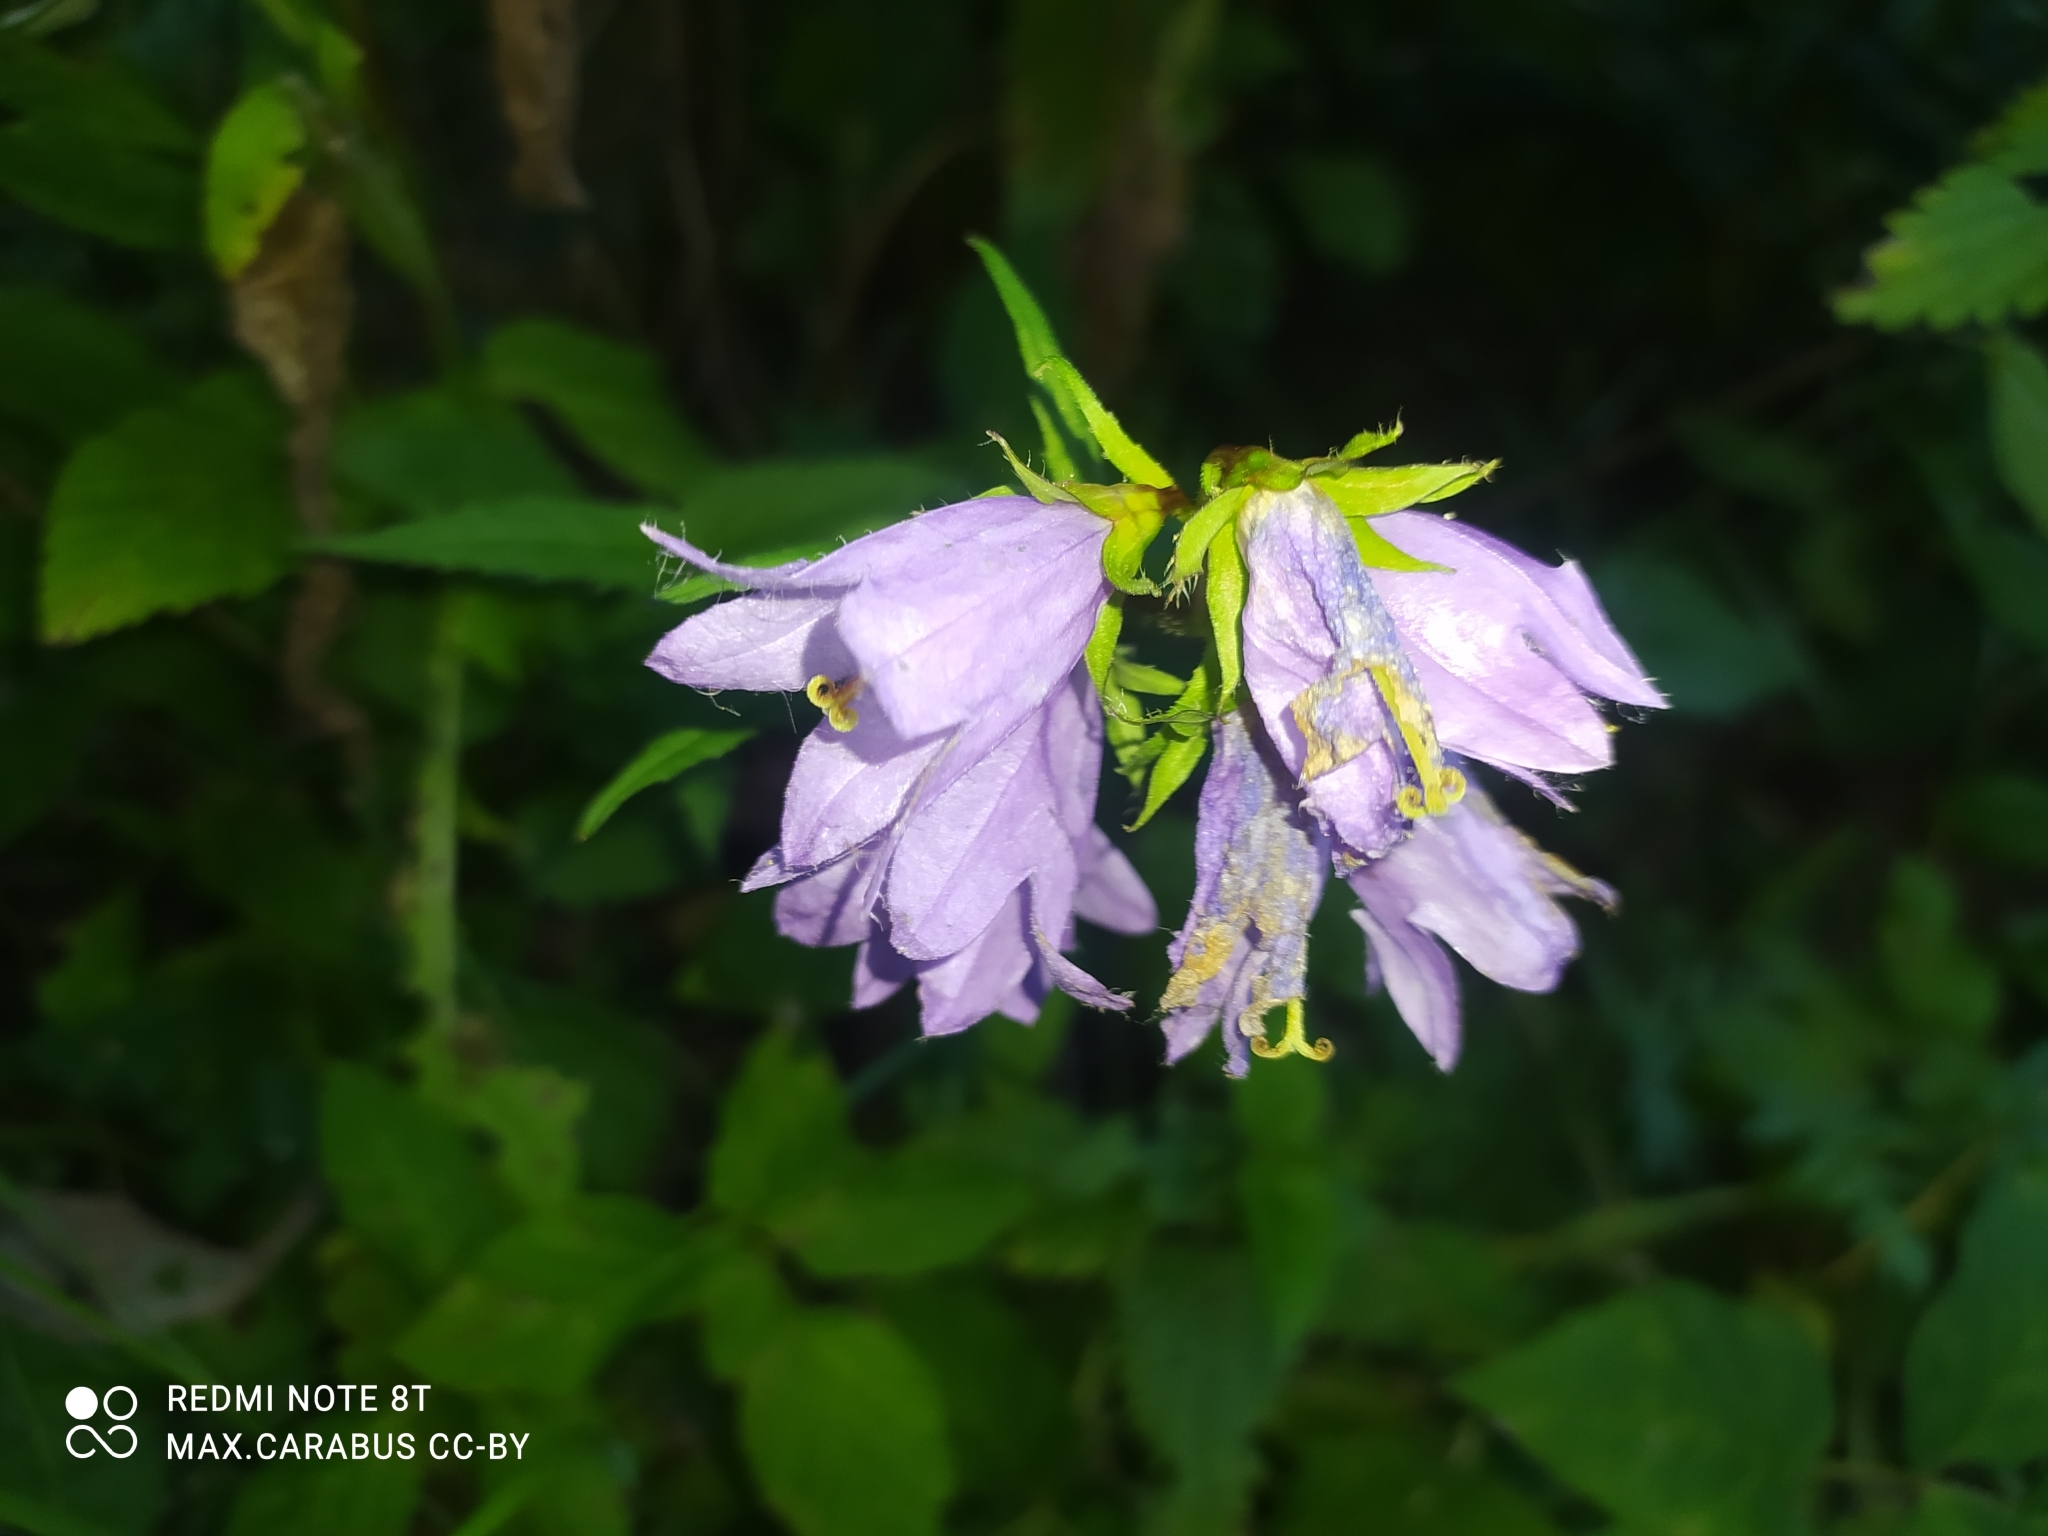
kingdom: Plantae
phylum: Tracheophyta
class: Magnoliopsida
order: Asterales
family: Campanulaceae
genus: Campanula
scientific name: Campanula trachelium
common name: Nettle-leaved bellflower
